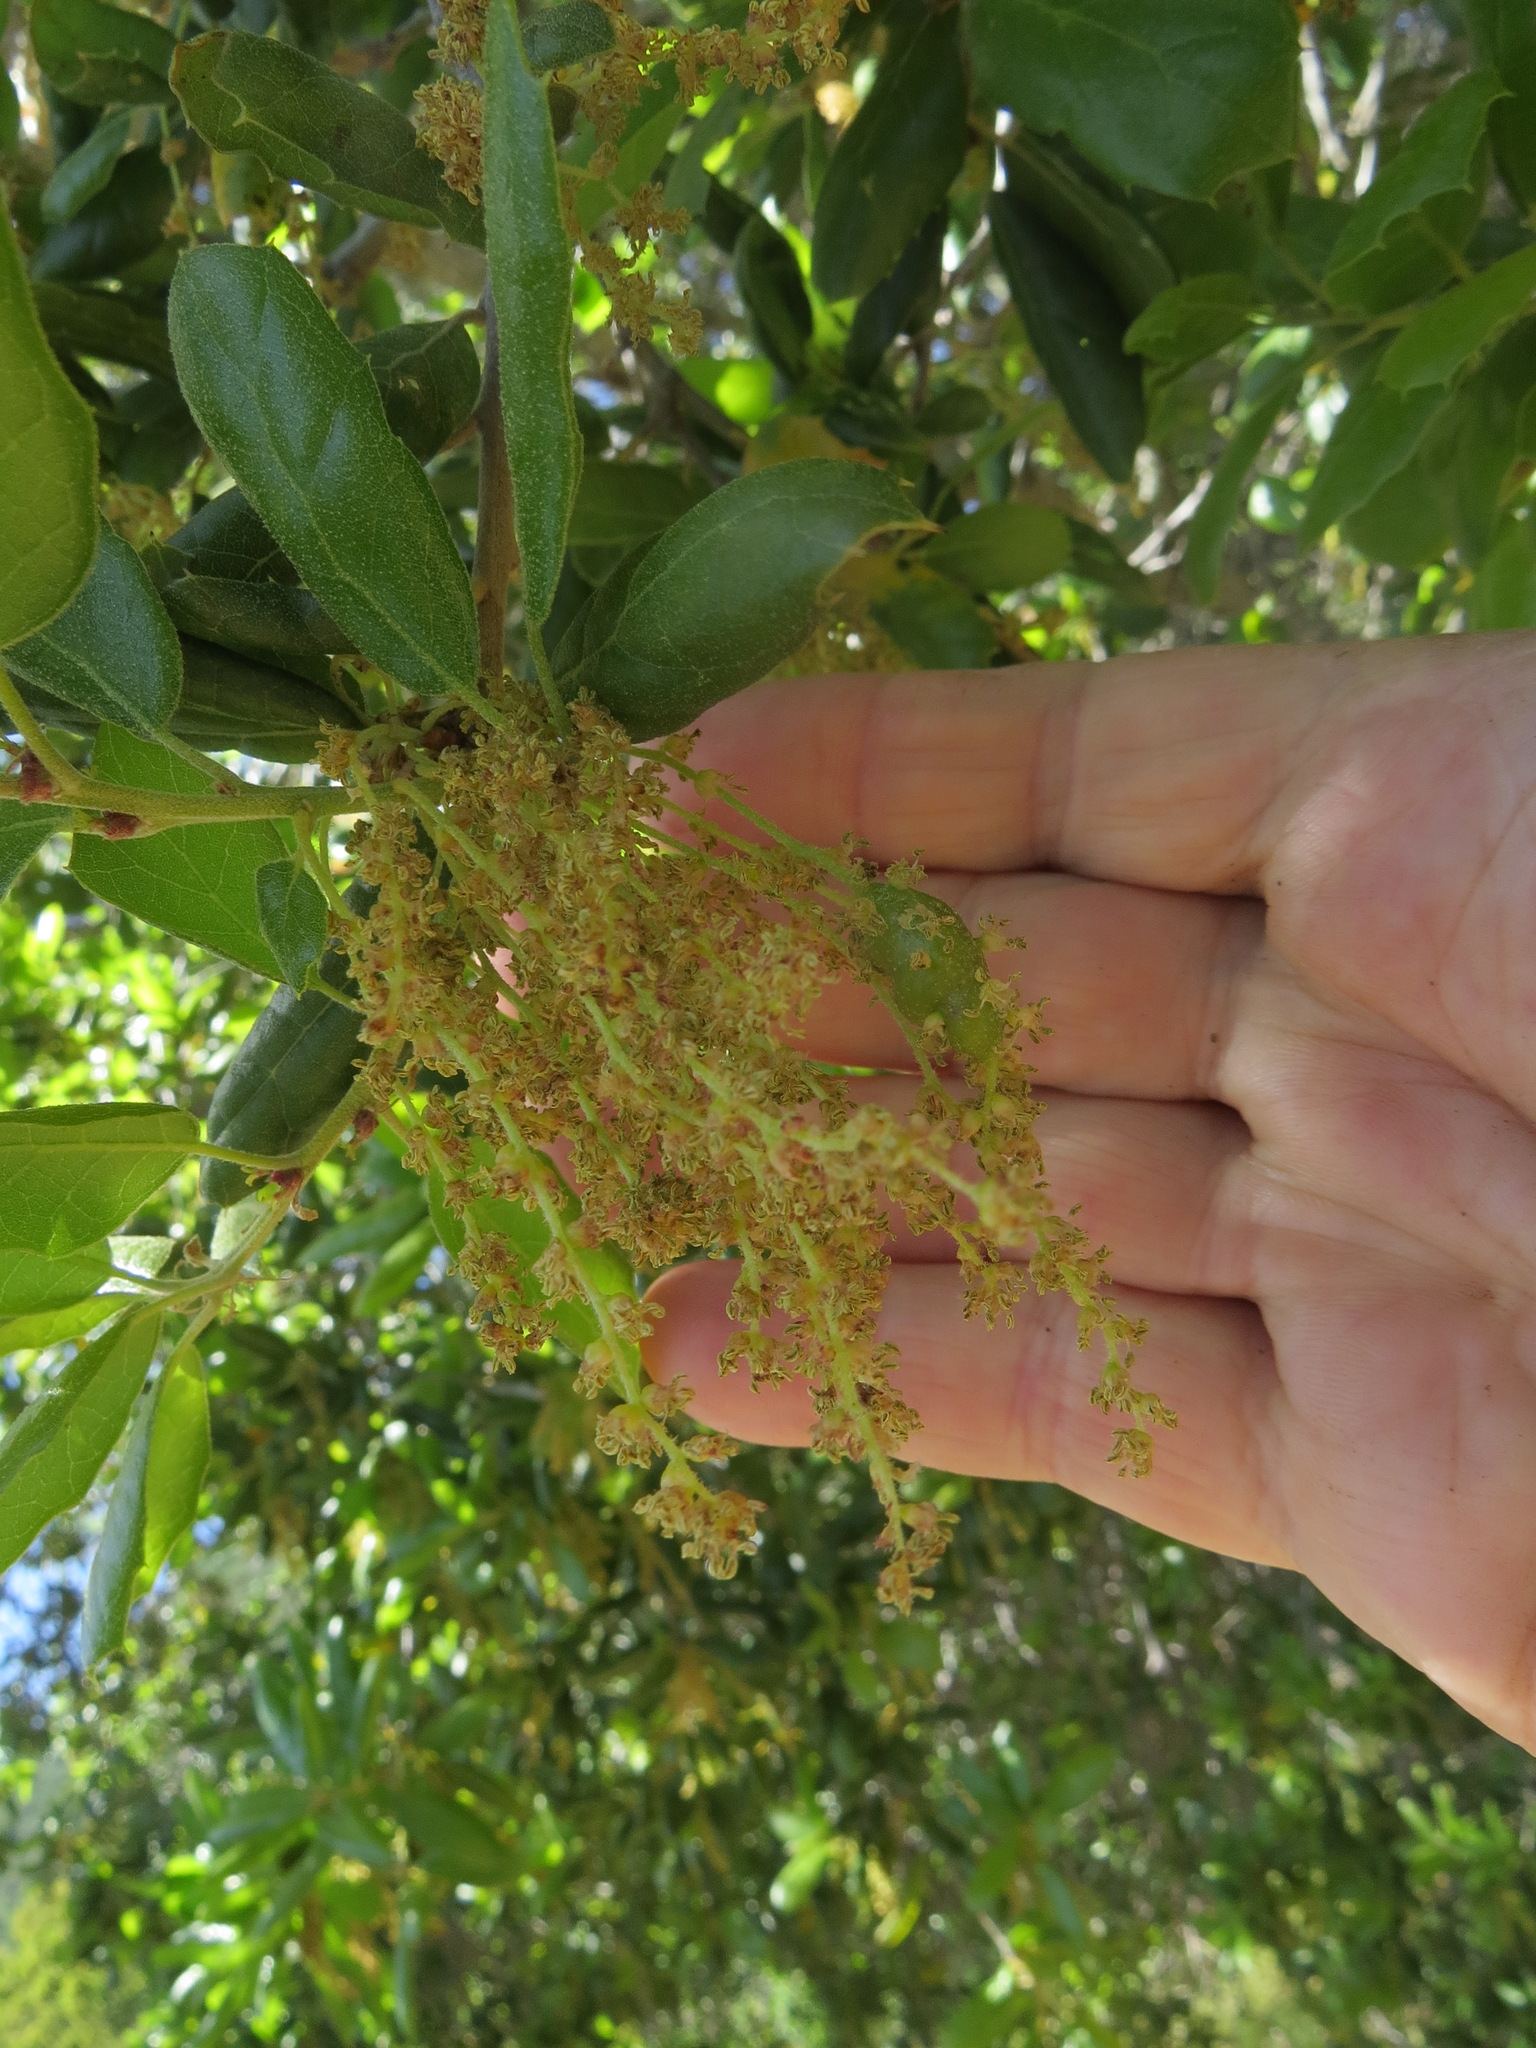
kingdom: Animalia
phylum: Arthropoda
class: Insecta
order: Hymenoptera
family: Cynipidae
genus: Callirhytis
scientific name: Callirhytis
